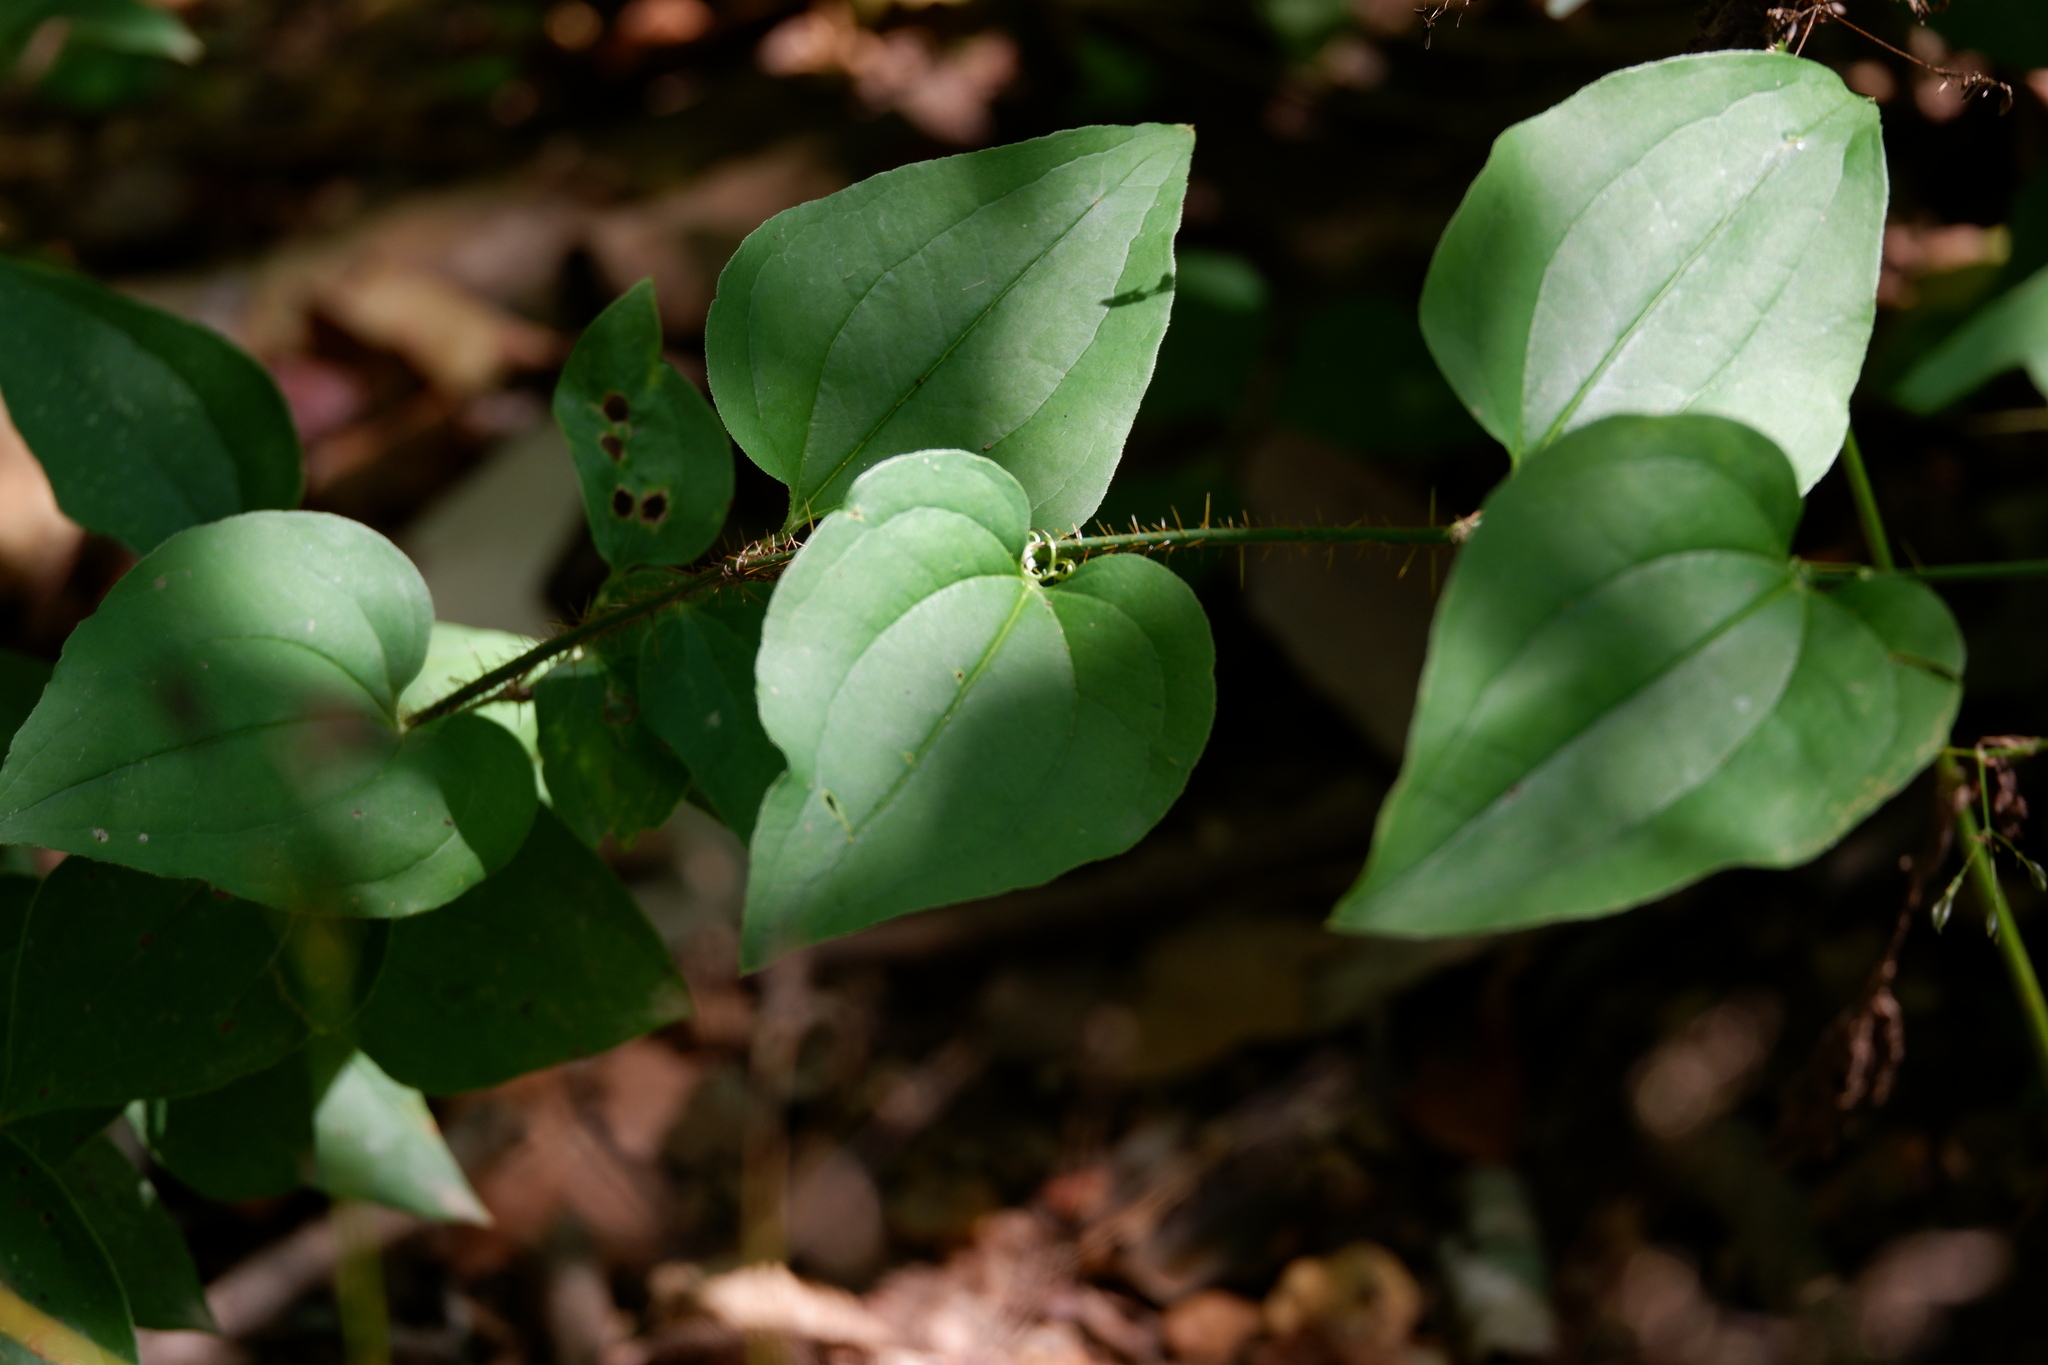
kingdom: Plantae
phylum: Tracheophyta
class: Liliopsida
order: Liliales
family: Smilacaceae
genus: Smilax
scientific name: Smilax tamnoides
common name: Hellfetter
